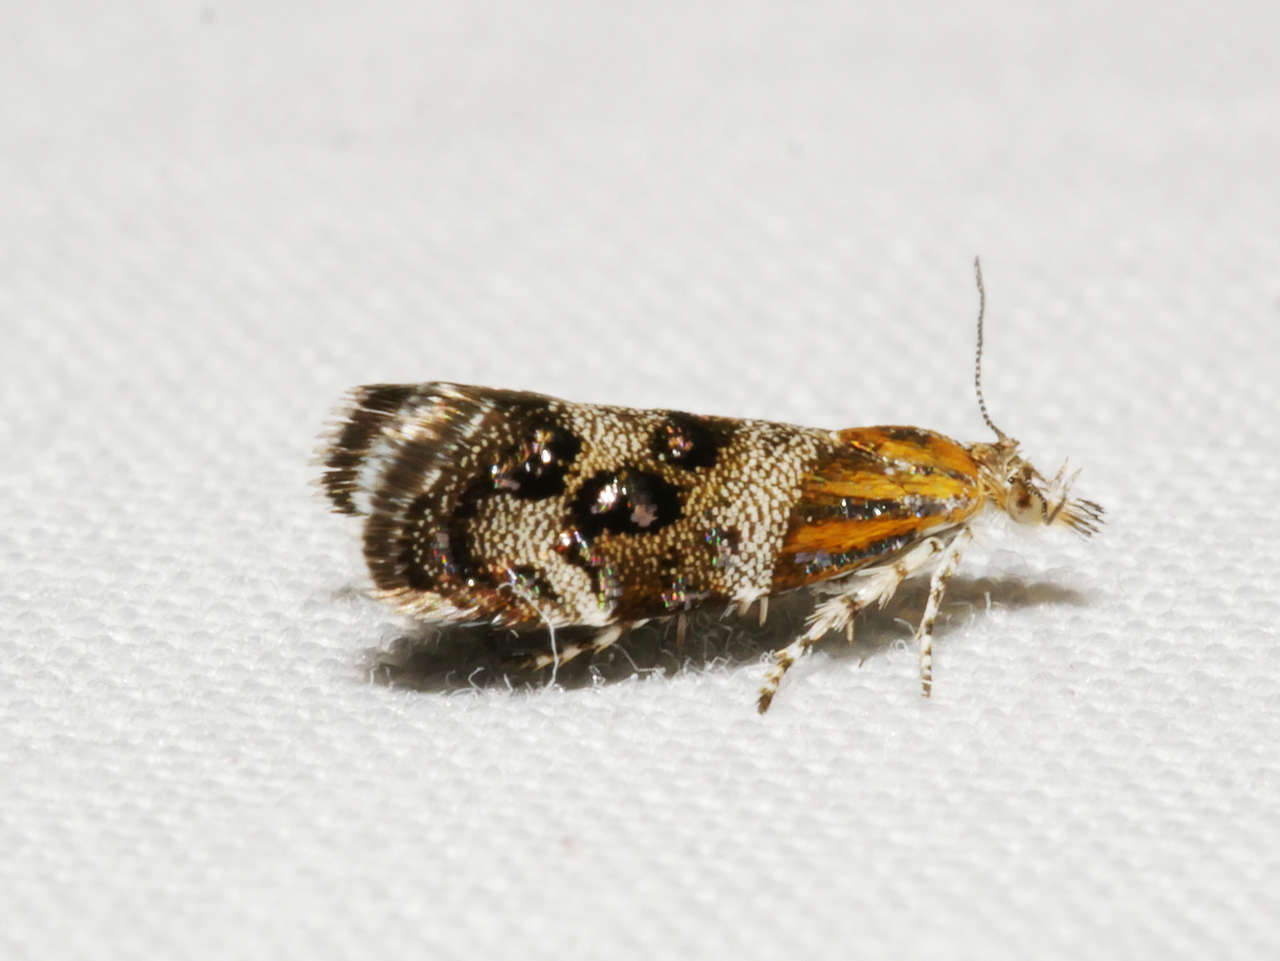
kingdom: Animalia
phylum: Arthropoda
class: Insecta
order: Lepidoptera
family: Choreutidae
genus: Tebenna
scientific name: Tebenna micalis
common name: Vagrant twitcher
